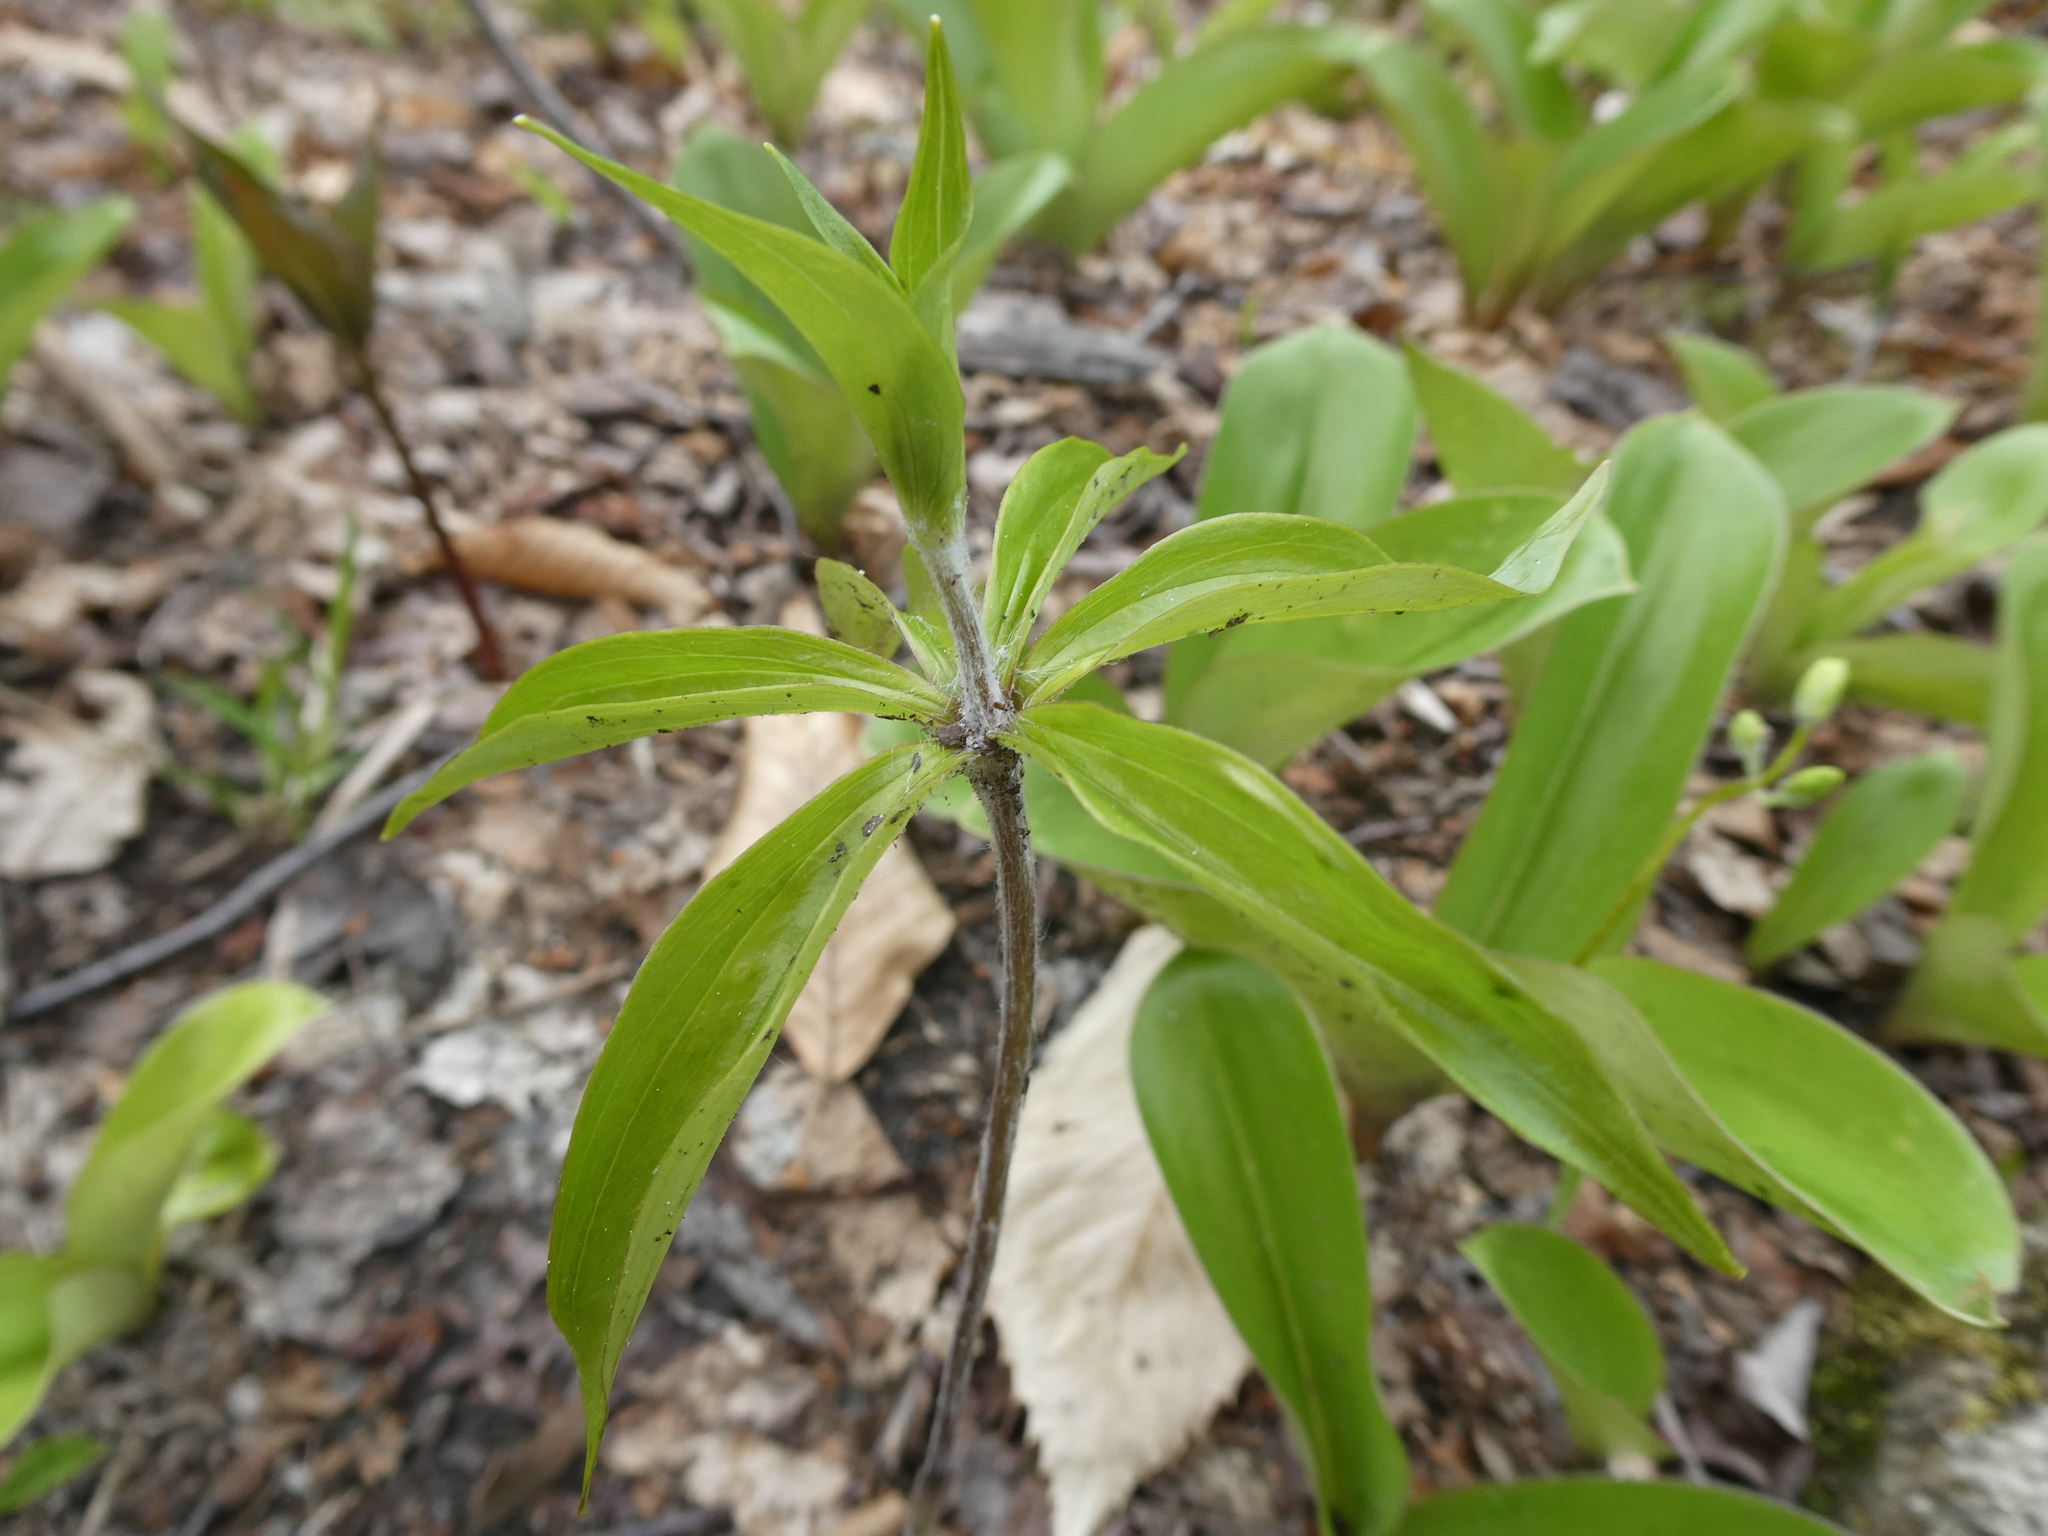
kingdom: Plantae
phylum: Tracheophyta
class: Liliopsida
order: Liliales
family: Liliaceae
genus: Medeola
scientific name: Medeola virginiana
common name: Indian cucumber-root
